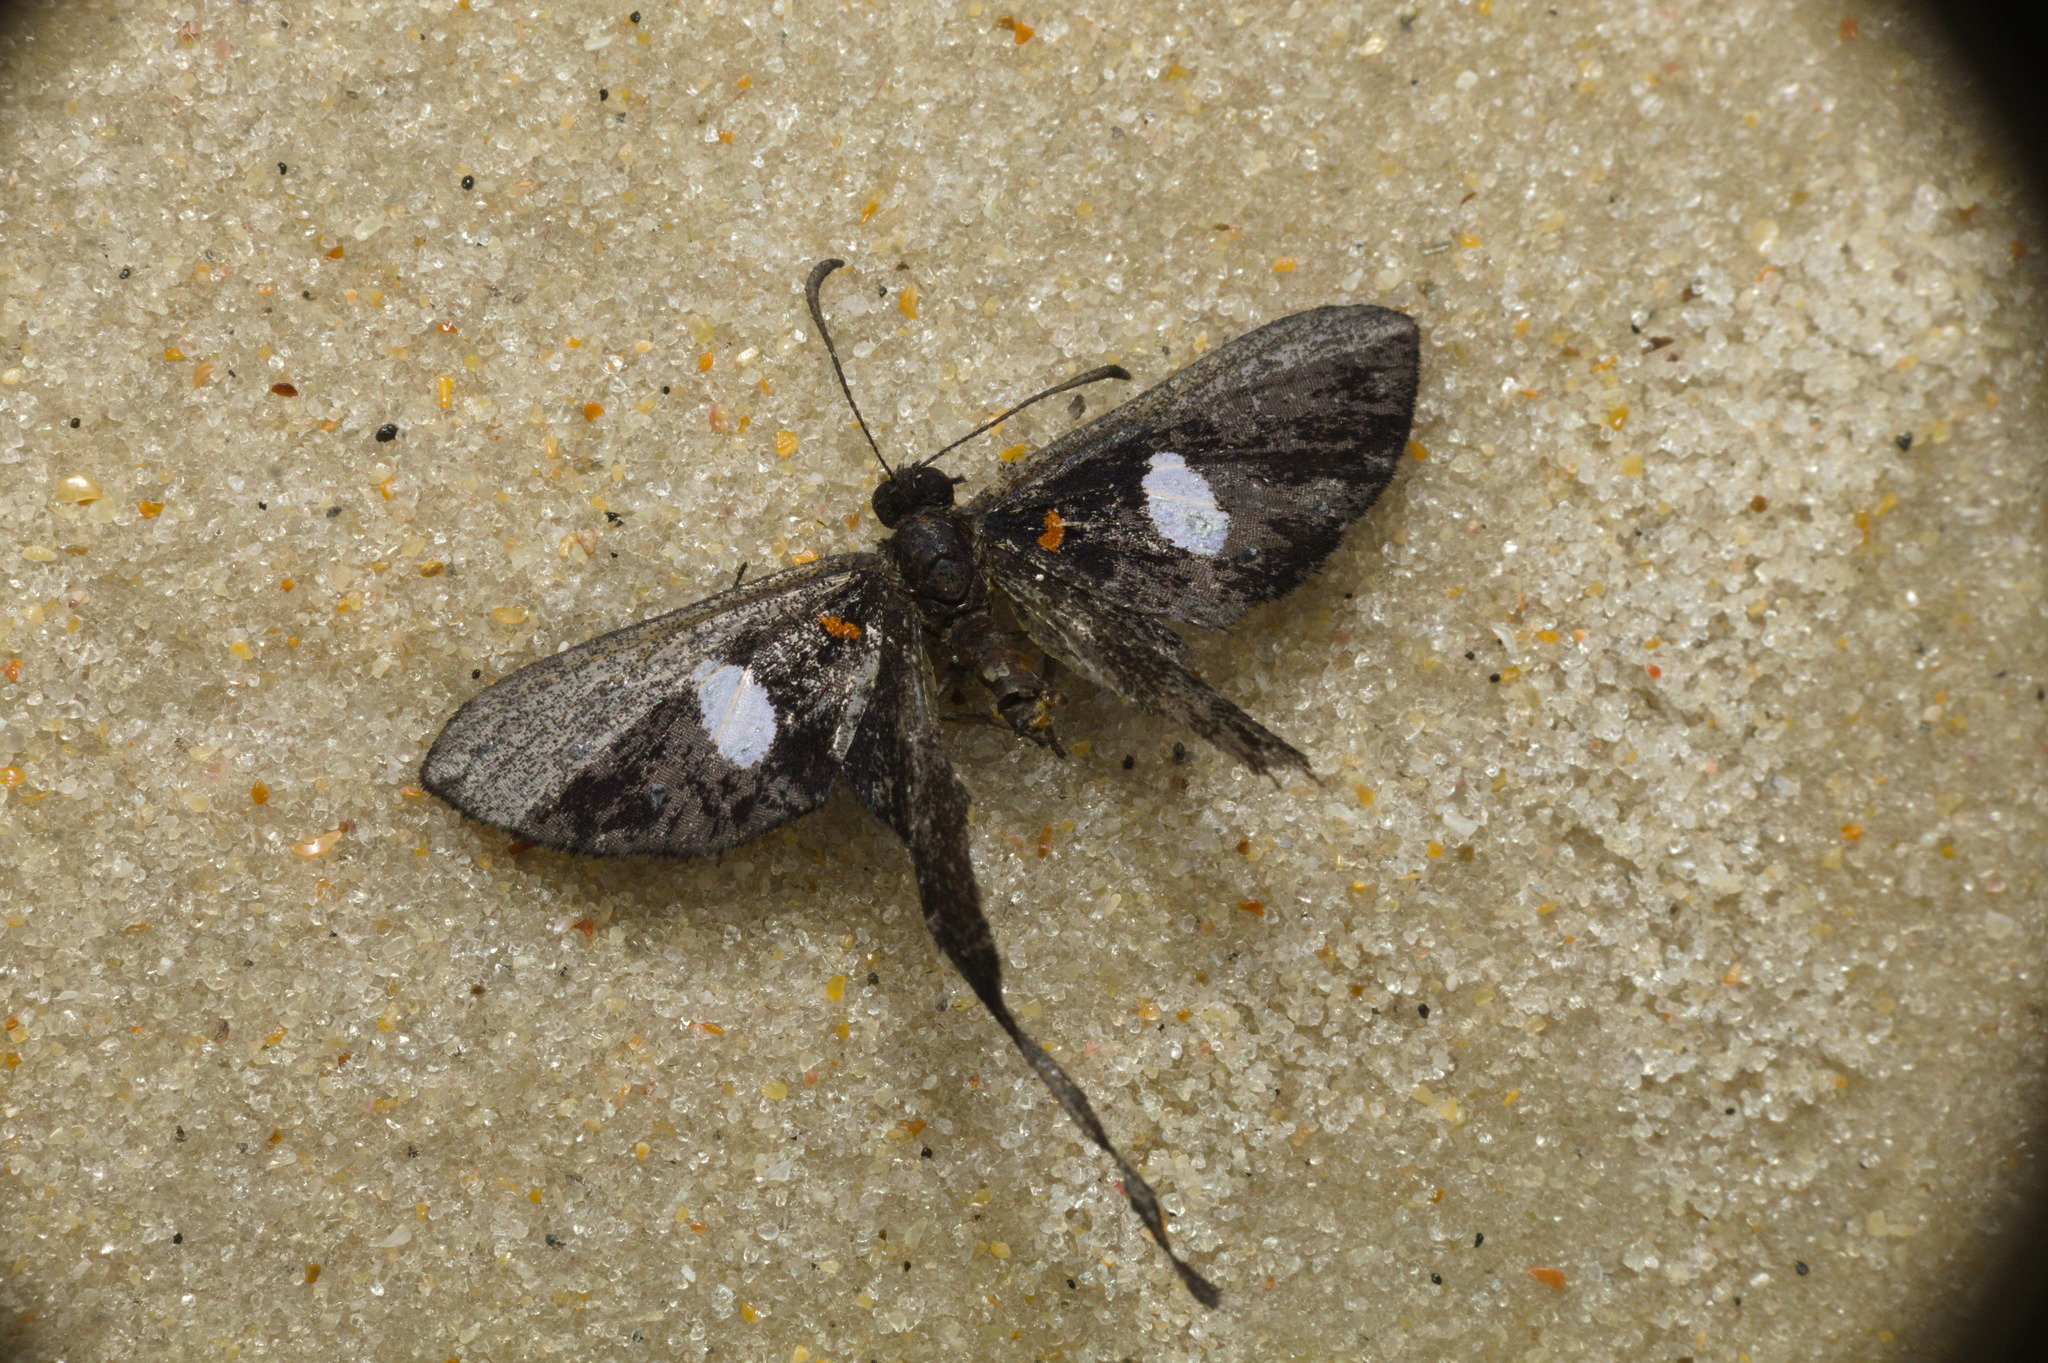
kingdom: Animalia
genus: Syrmatia
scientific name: Syrmatia nyx
